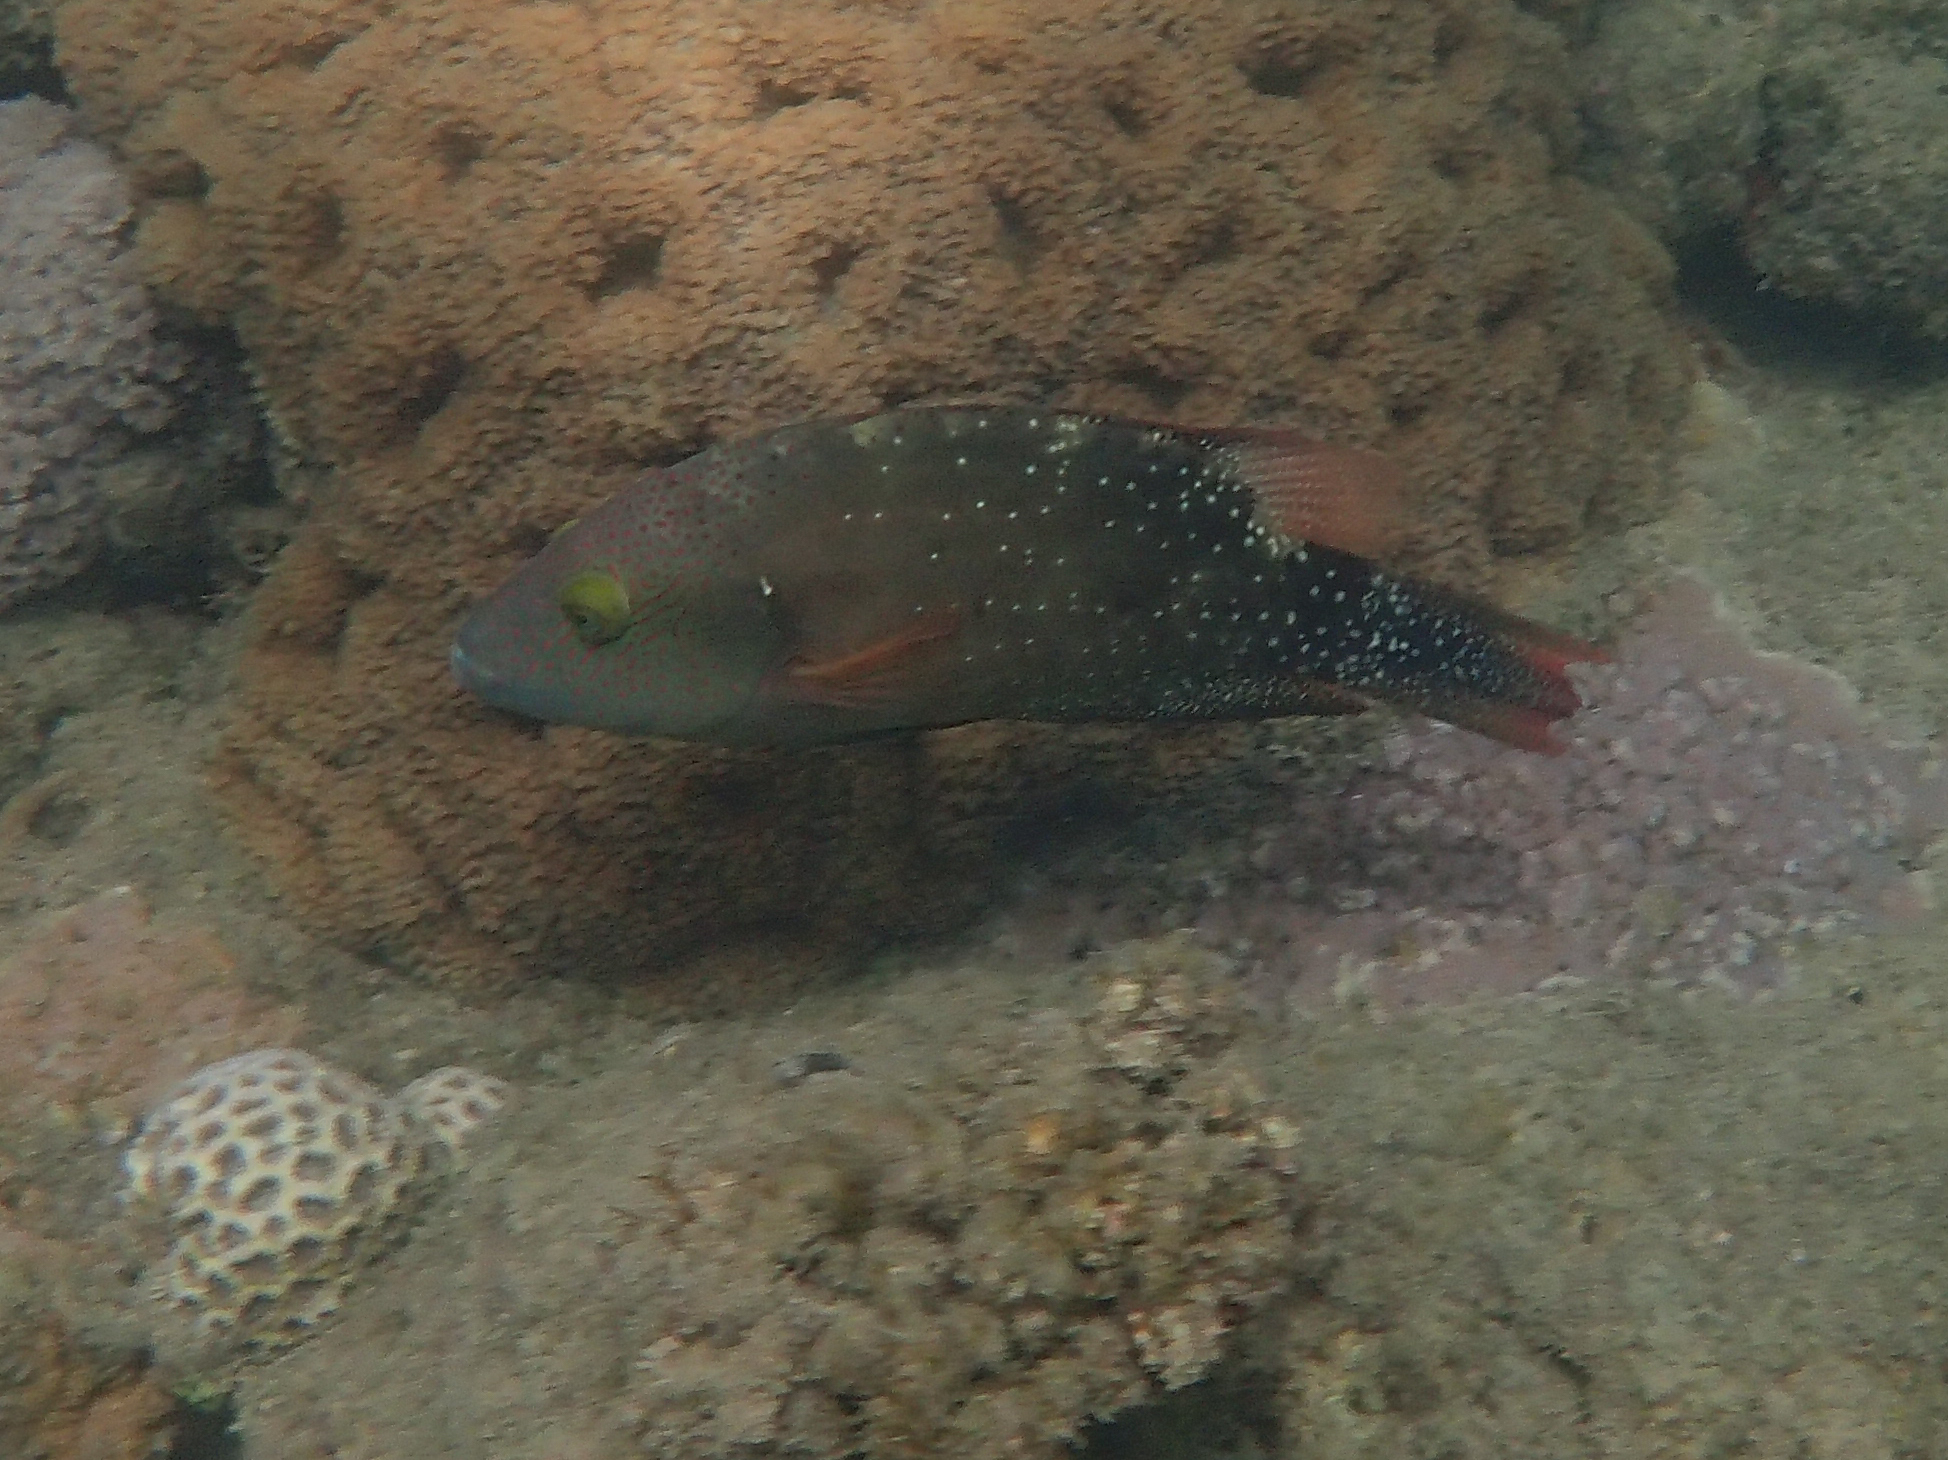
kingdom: Animalia
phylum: Chordata
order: Perciformes
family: Labridae
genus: Cheilinus
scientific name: Cheilinus chlorourus
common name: Floral wrasse
